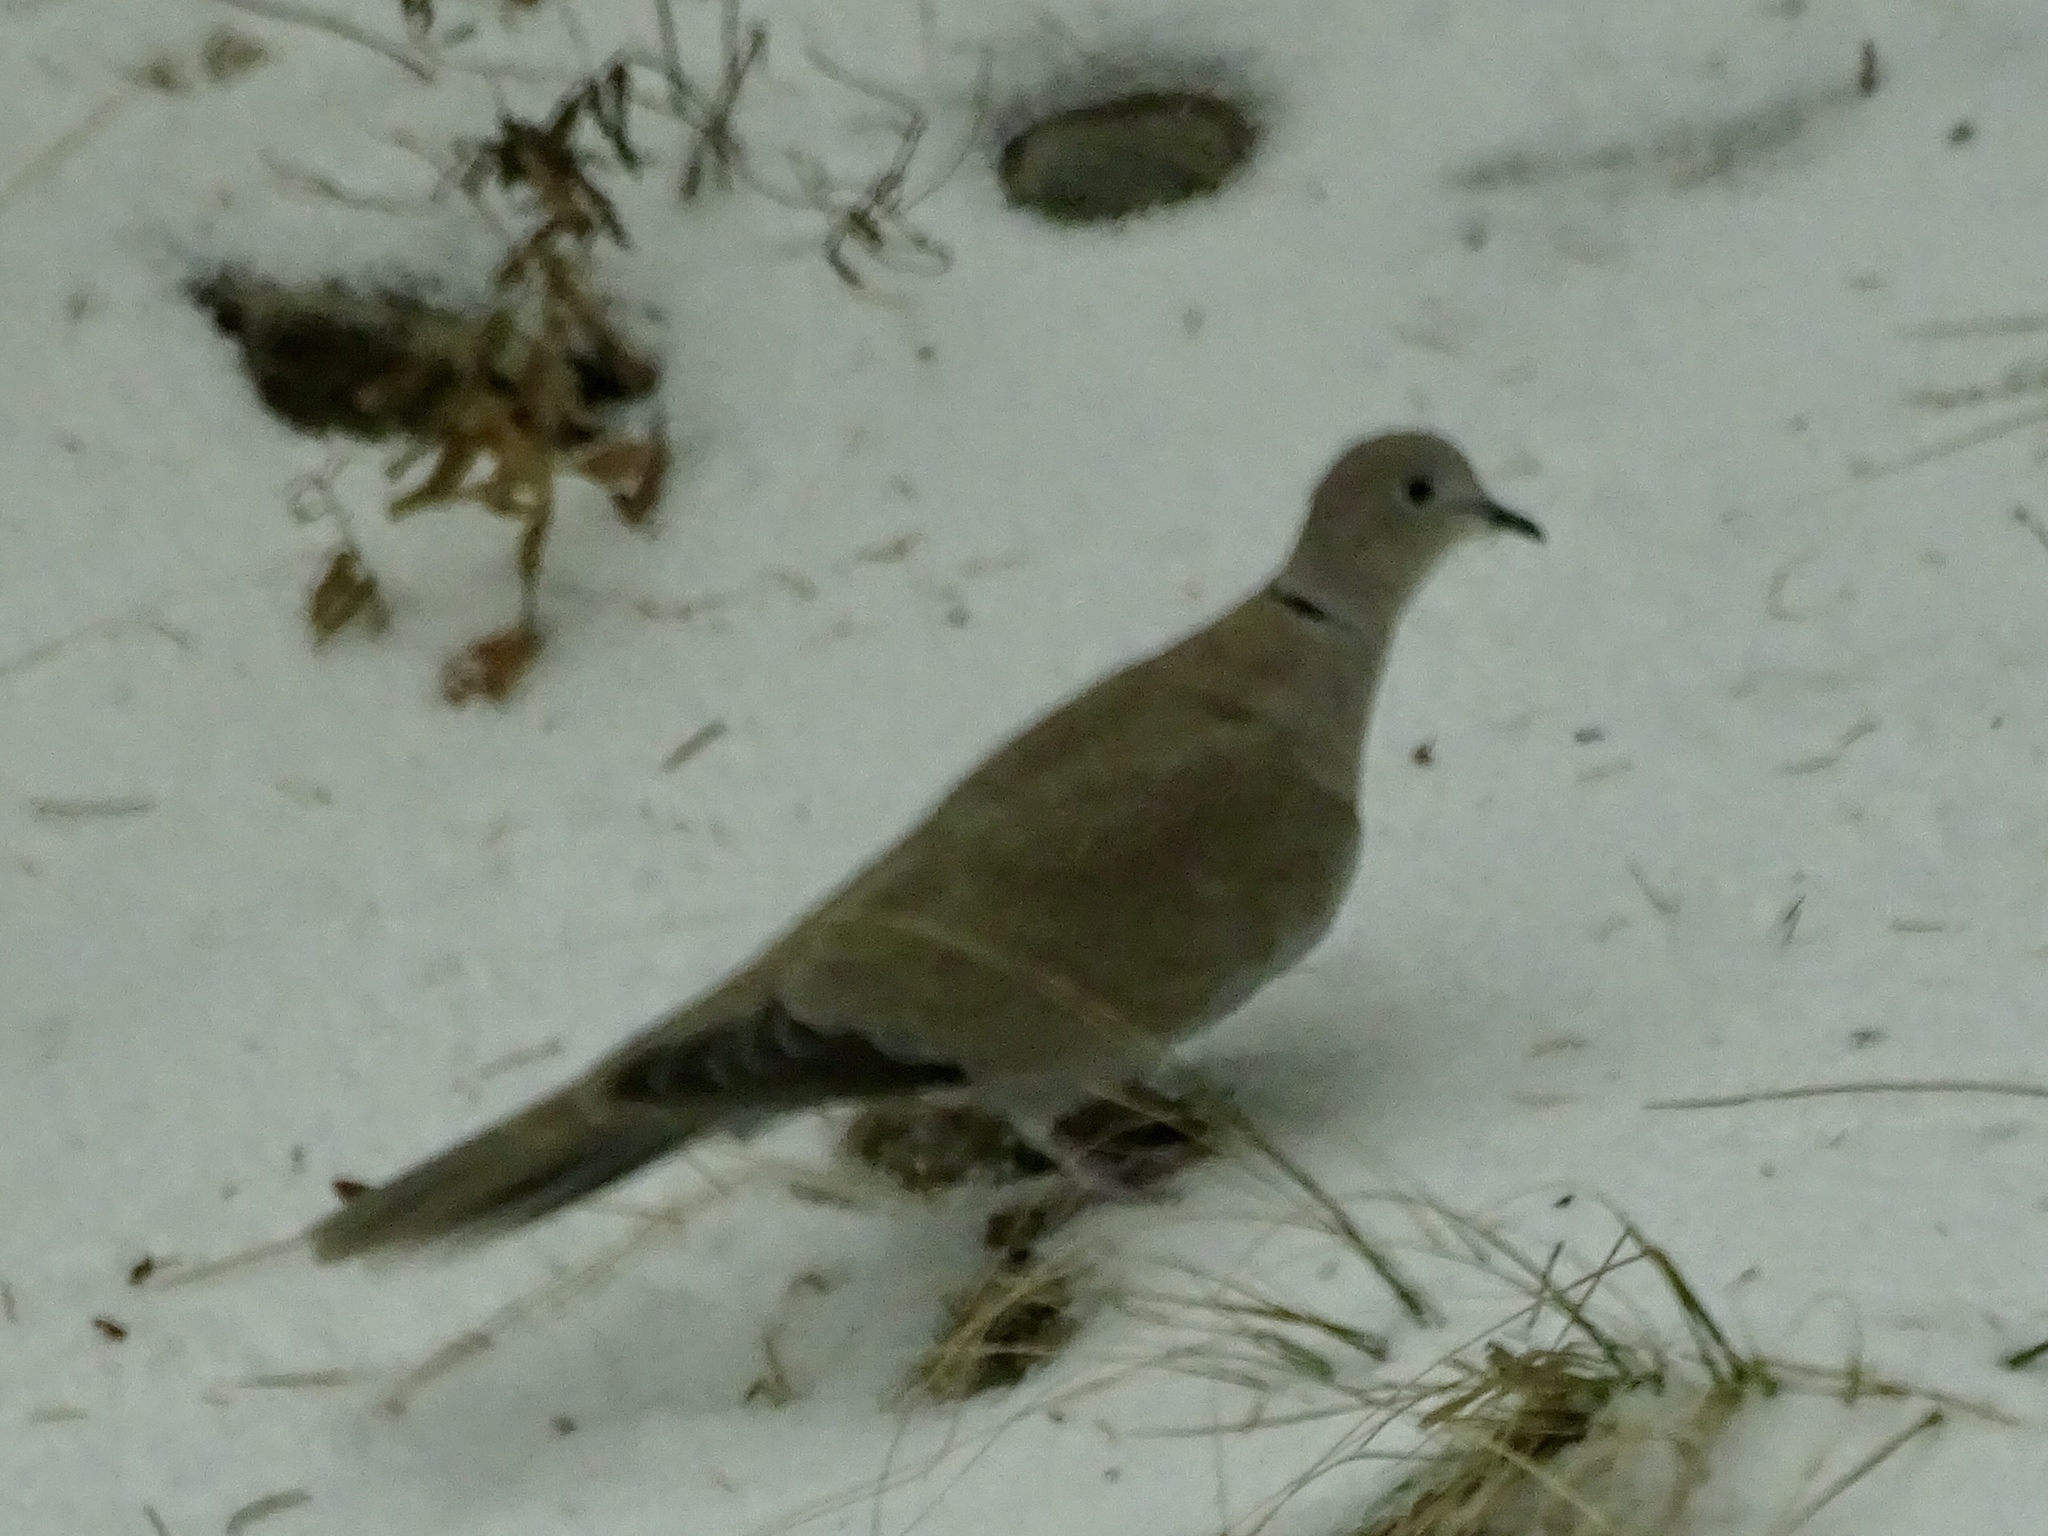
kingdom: Animalia
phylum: Chordata
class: Aves
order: Columbiformes
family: Columbidae
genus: Streptopelia
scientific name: Streptopelia decaocto
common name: Eurasian collared dove
